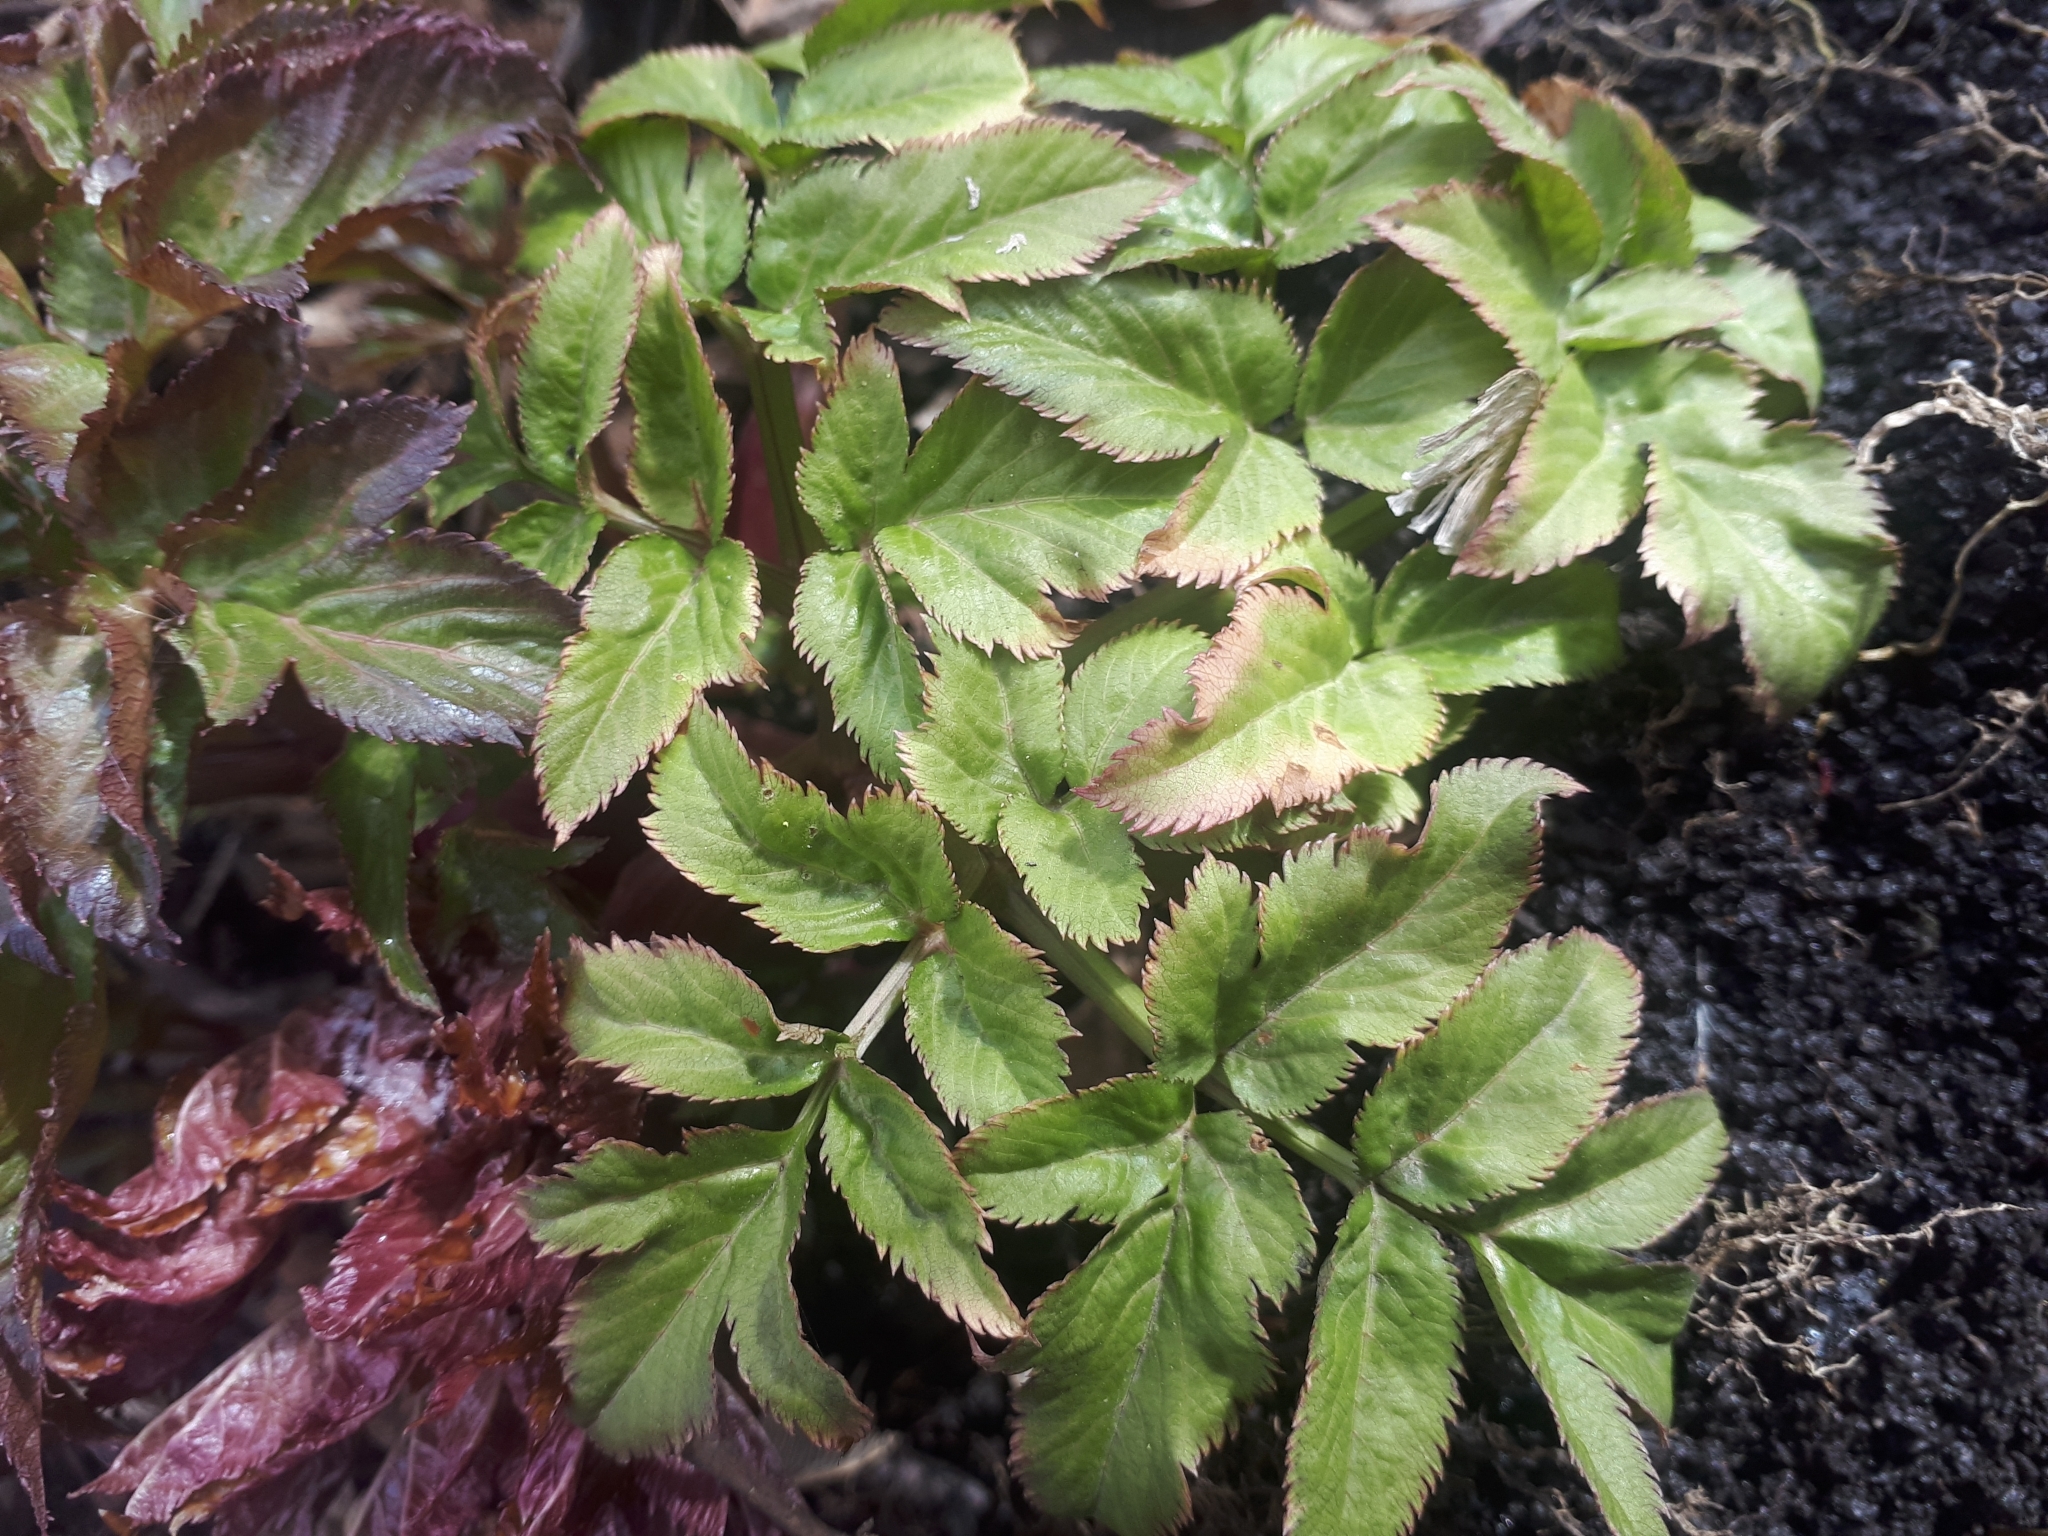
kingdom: Plantae
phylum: Tracheophyta
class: Magnoliopsida
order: Apiales
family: Apiaceae
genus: Angelica
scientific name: Angelica archangelica
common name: Garden angelica
